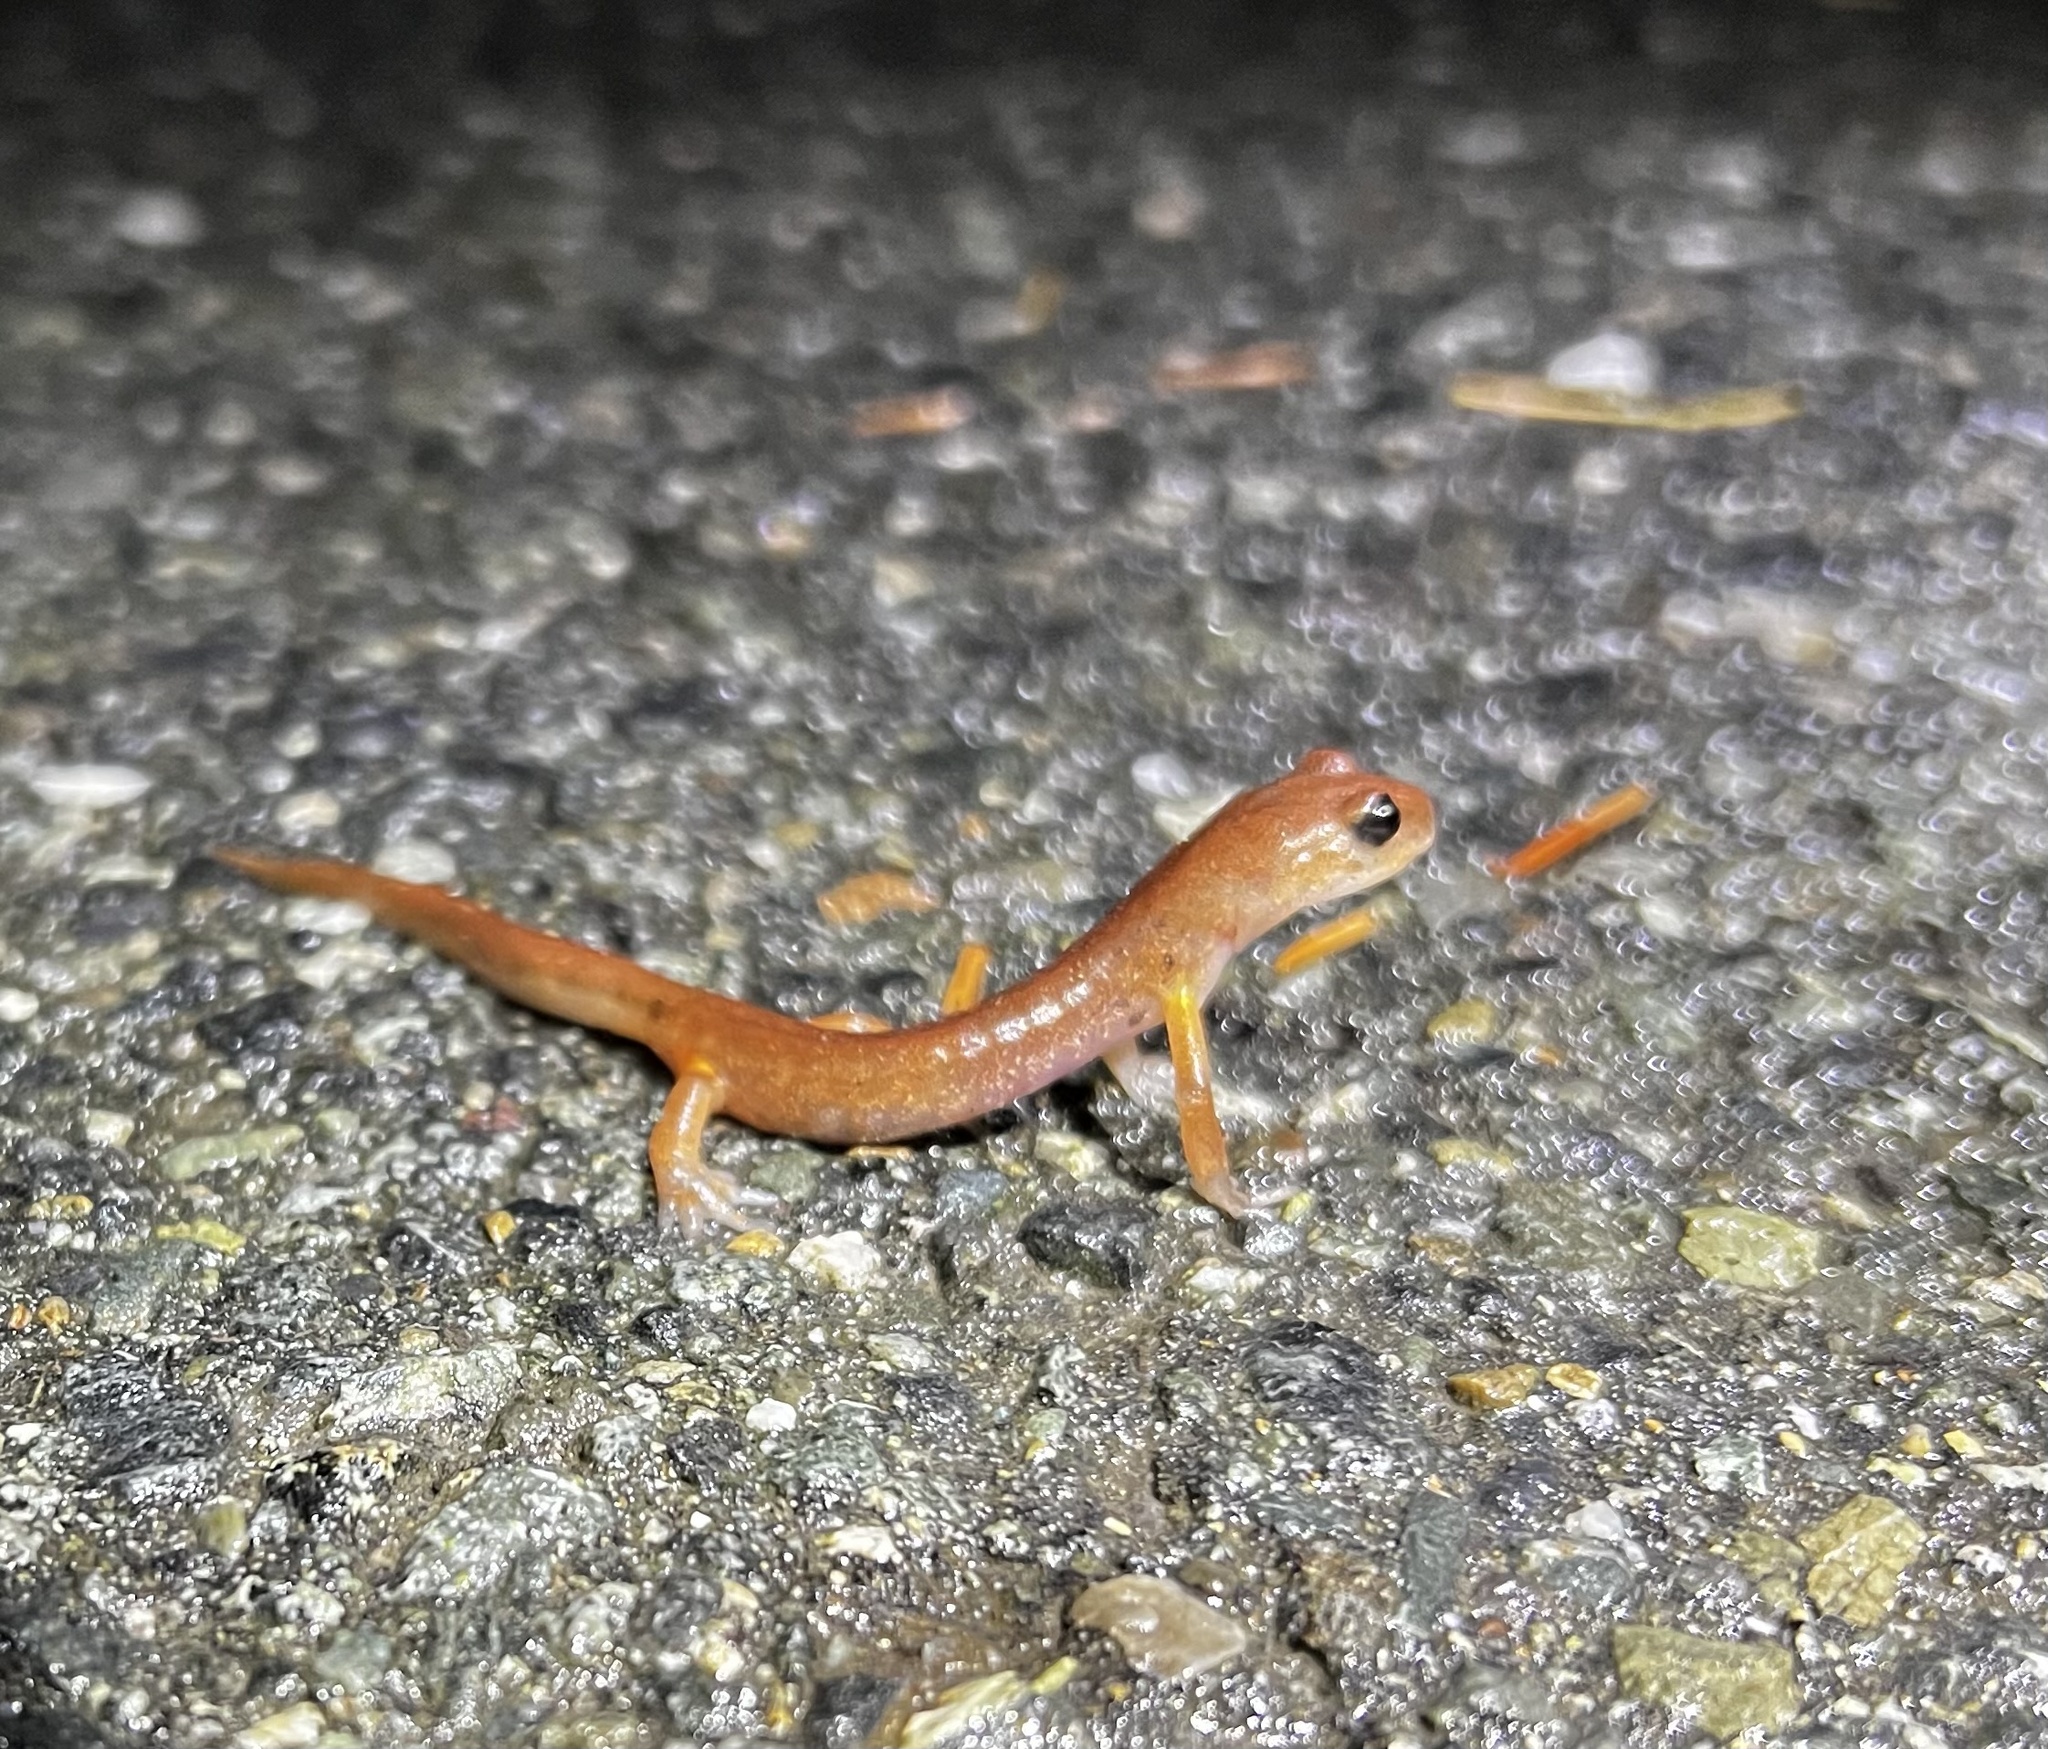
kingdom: Animalia
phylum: Chordata
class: Amphibia
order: Caudata
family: Plethodontidae
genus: Ensatina
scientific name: Ensatina eschscholtzii
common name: Ensatina
